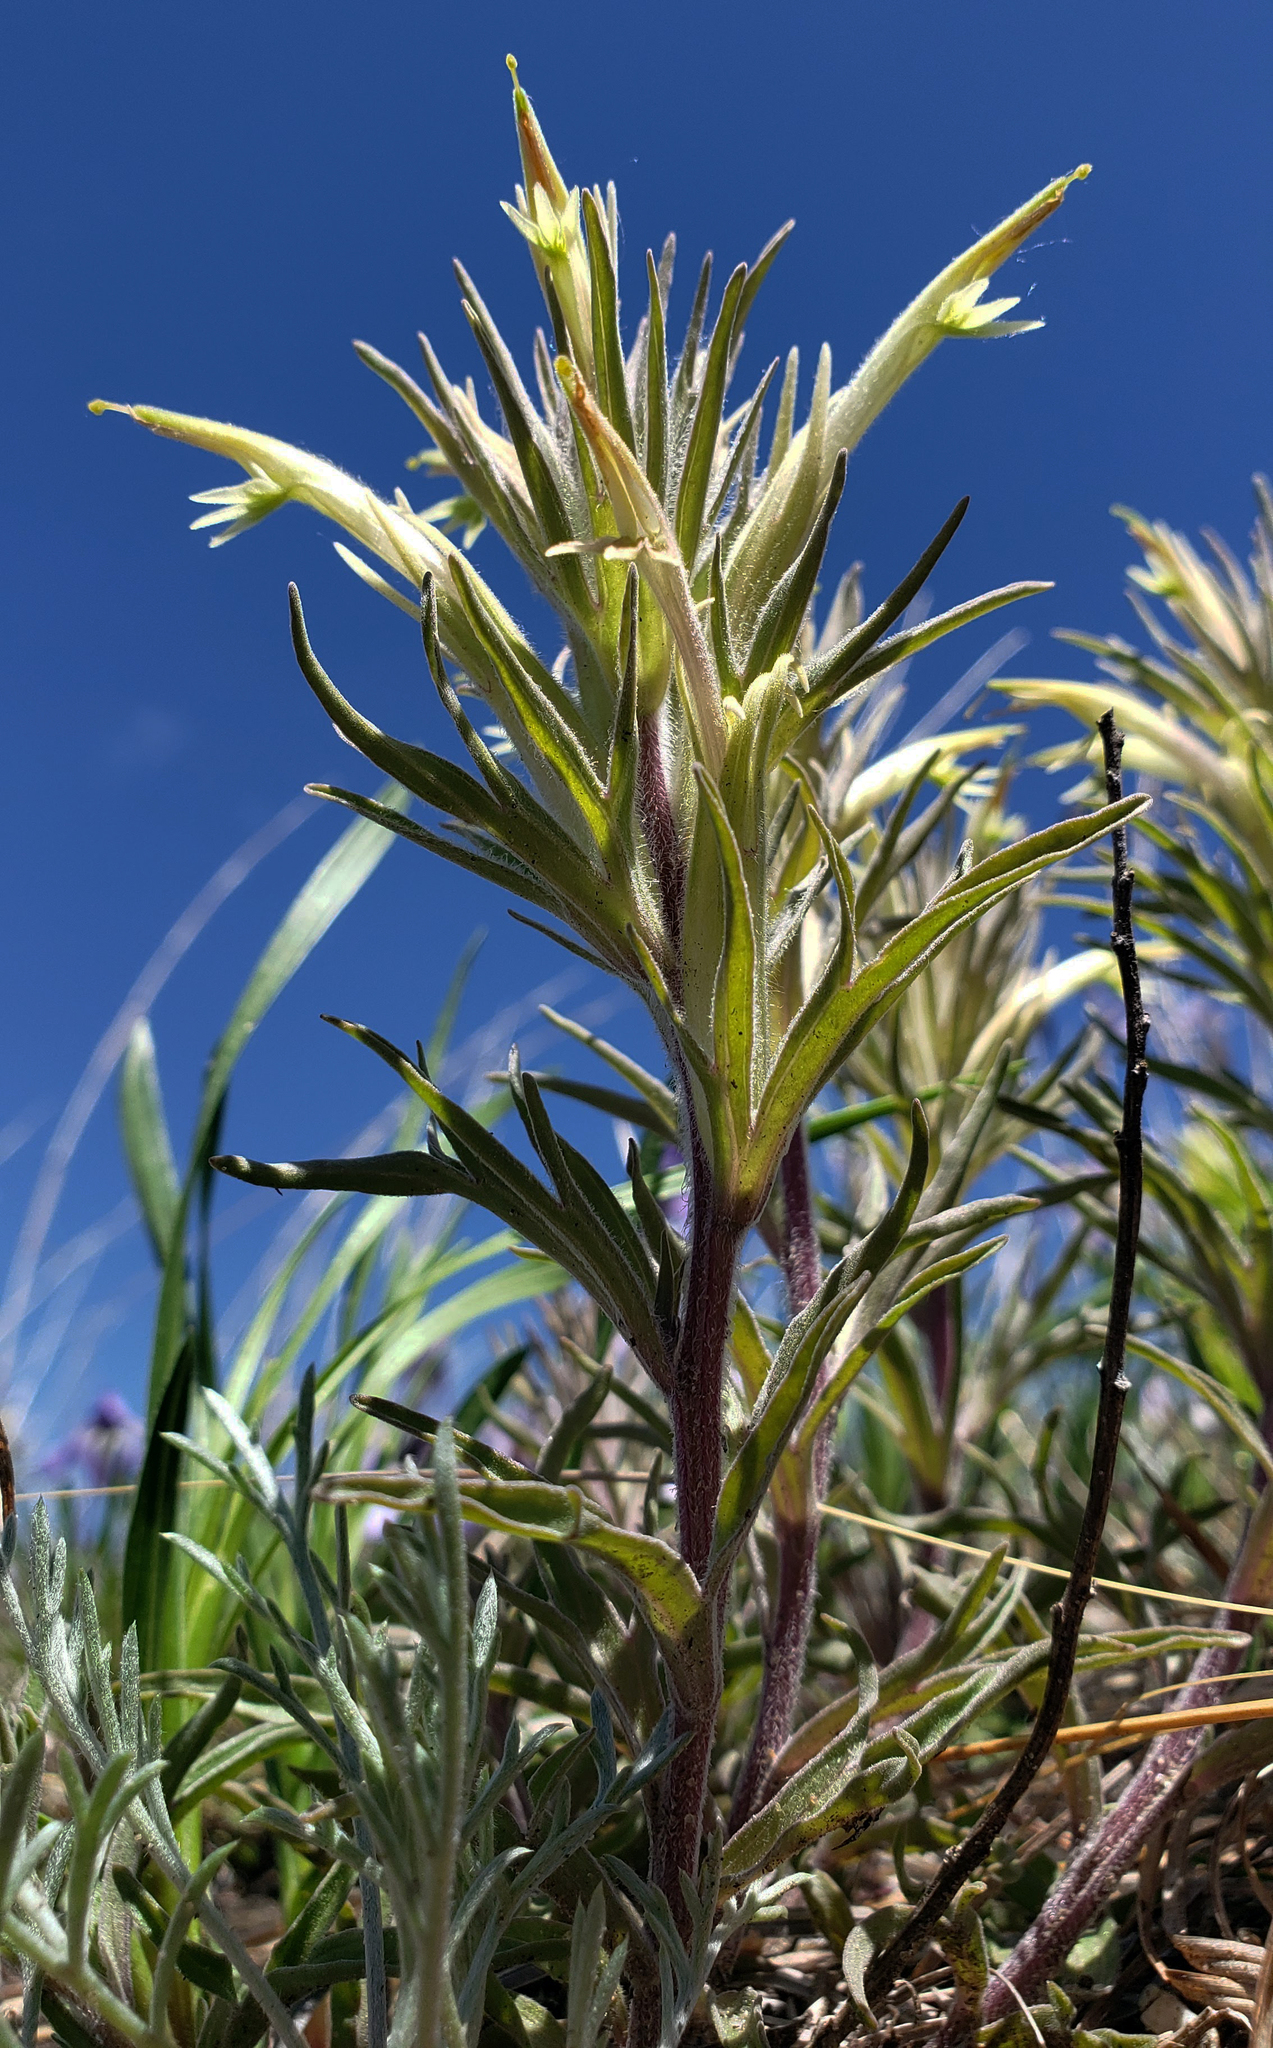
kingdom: Plantae
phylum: Tracheophyta
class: Magnoliopsida
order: Lamiales
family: Orobanchaceae
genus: Castilleja
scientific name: Castilleja sessiliflora
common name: Downy paintbrush
